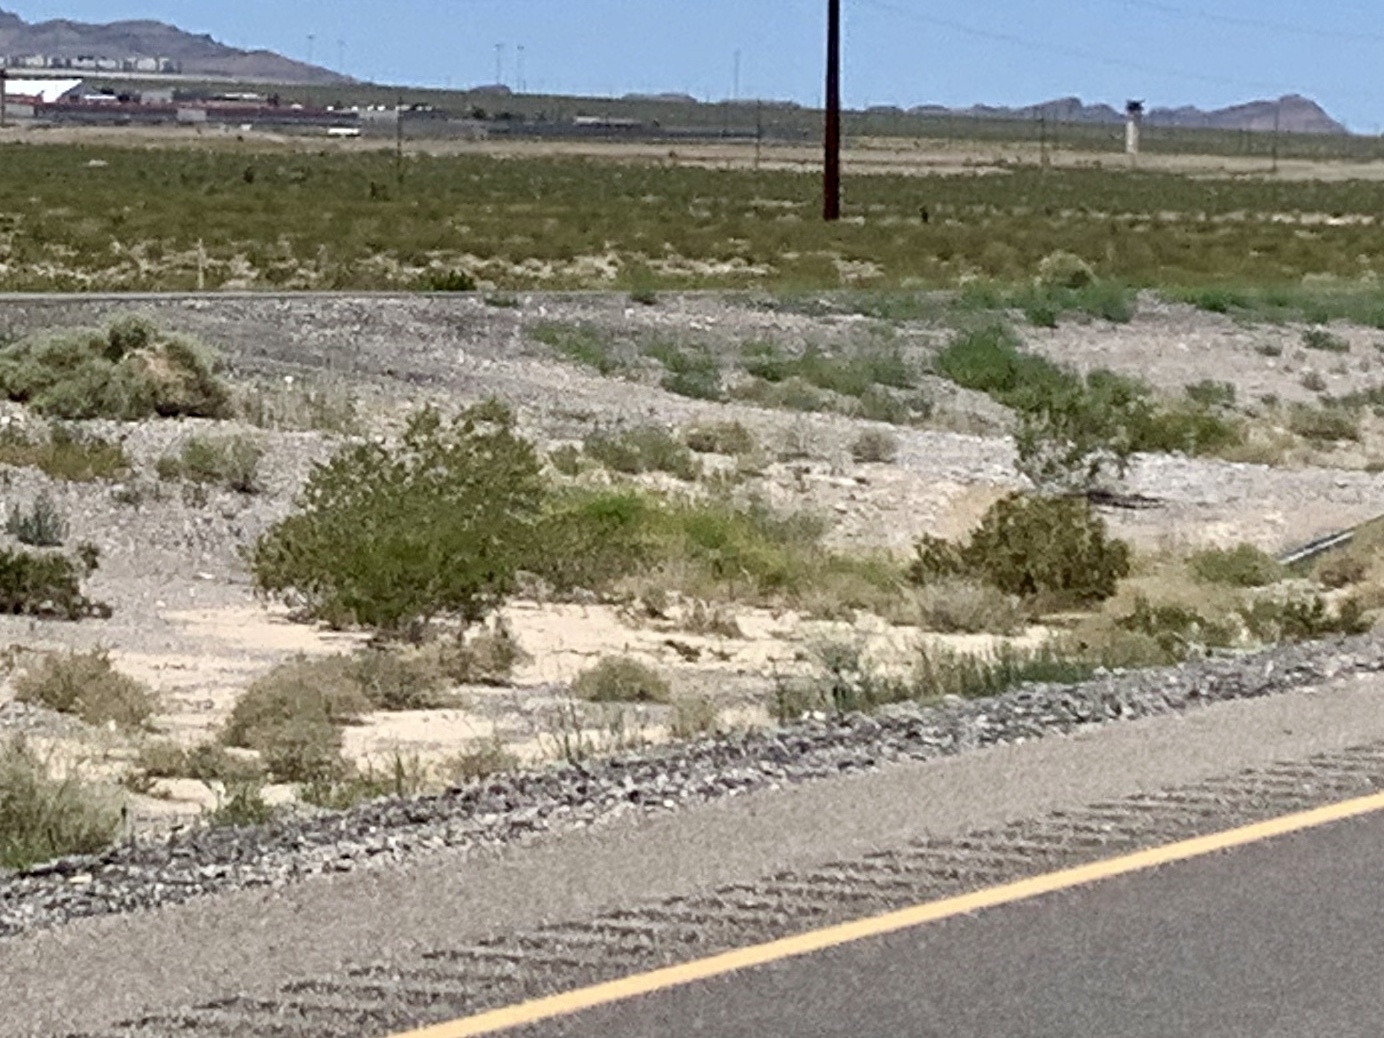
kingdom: Plantae
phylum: Tracheophyta
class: Magnoliopsida
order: Zygophyllales
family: Zygophyllaceae
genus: Larrea
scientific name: Larrea tridentata
